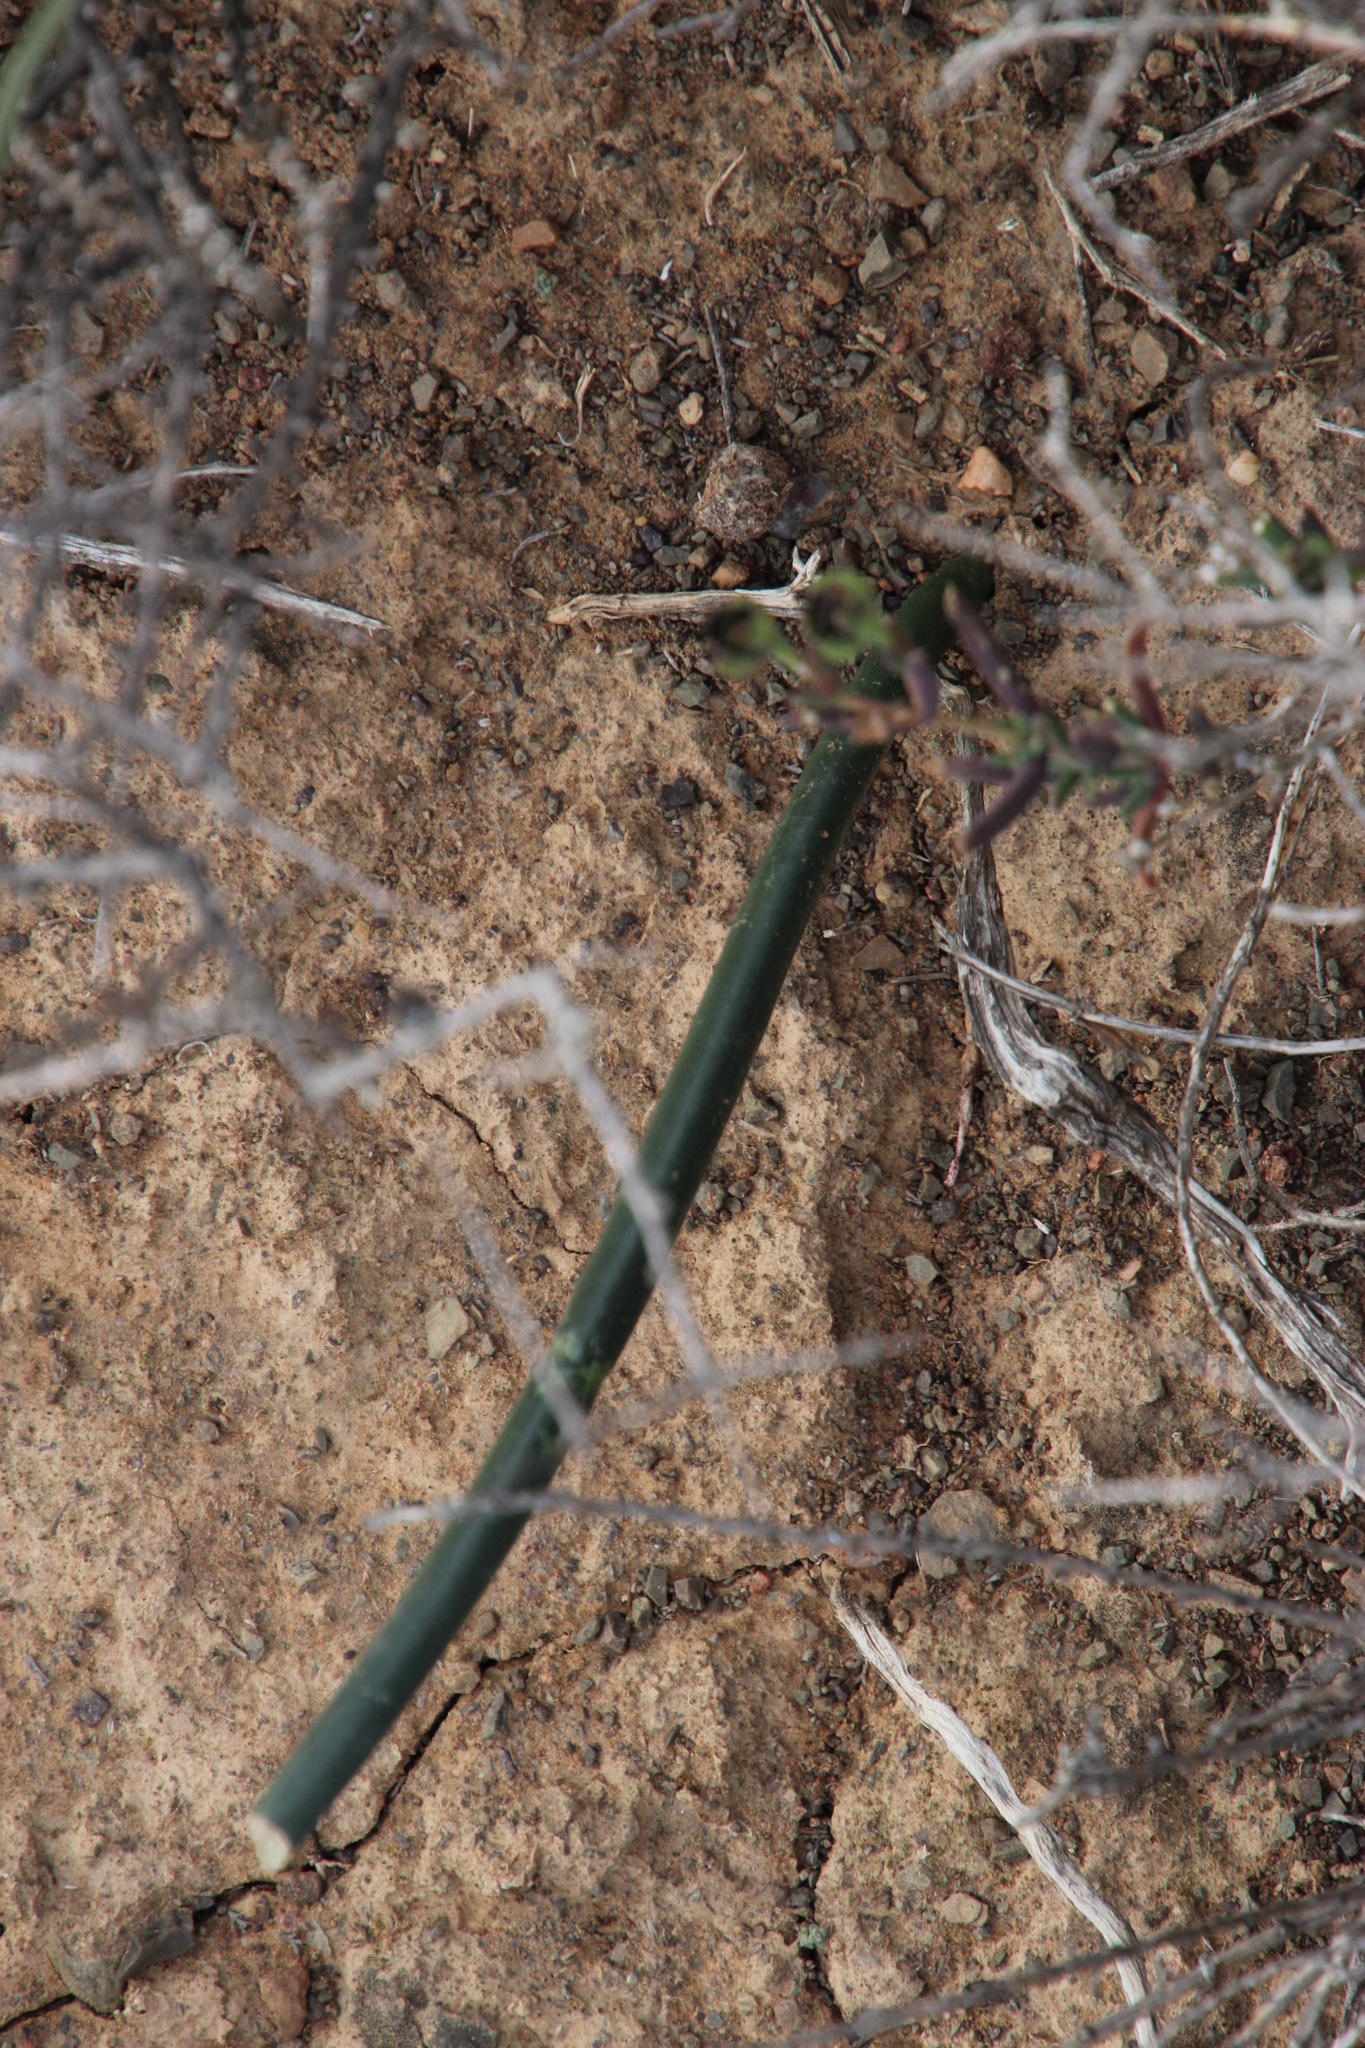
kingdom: Plantae
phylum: Tracheophyta
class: Liliopsida
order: Asparagales
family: Asparagaceae
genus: Drimia
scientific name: Drimia anomala
